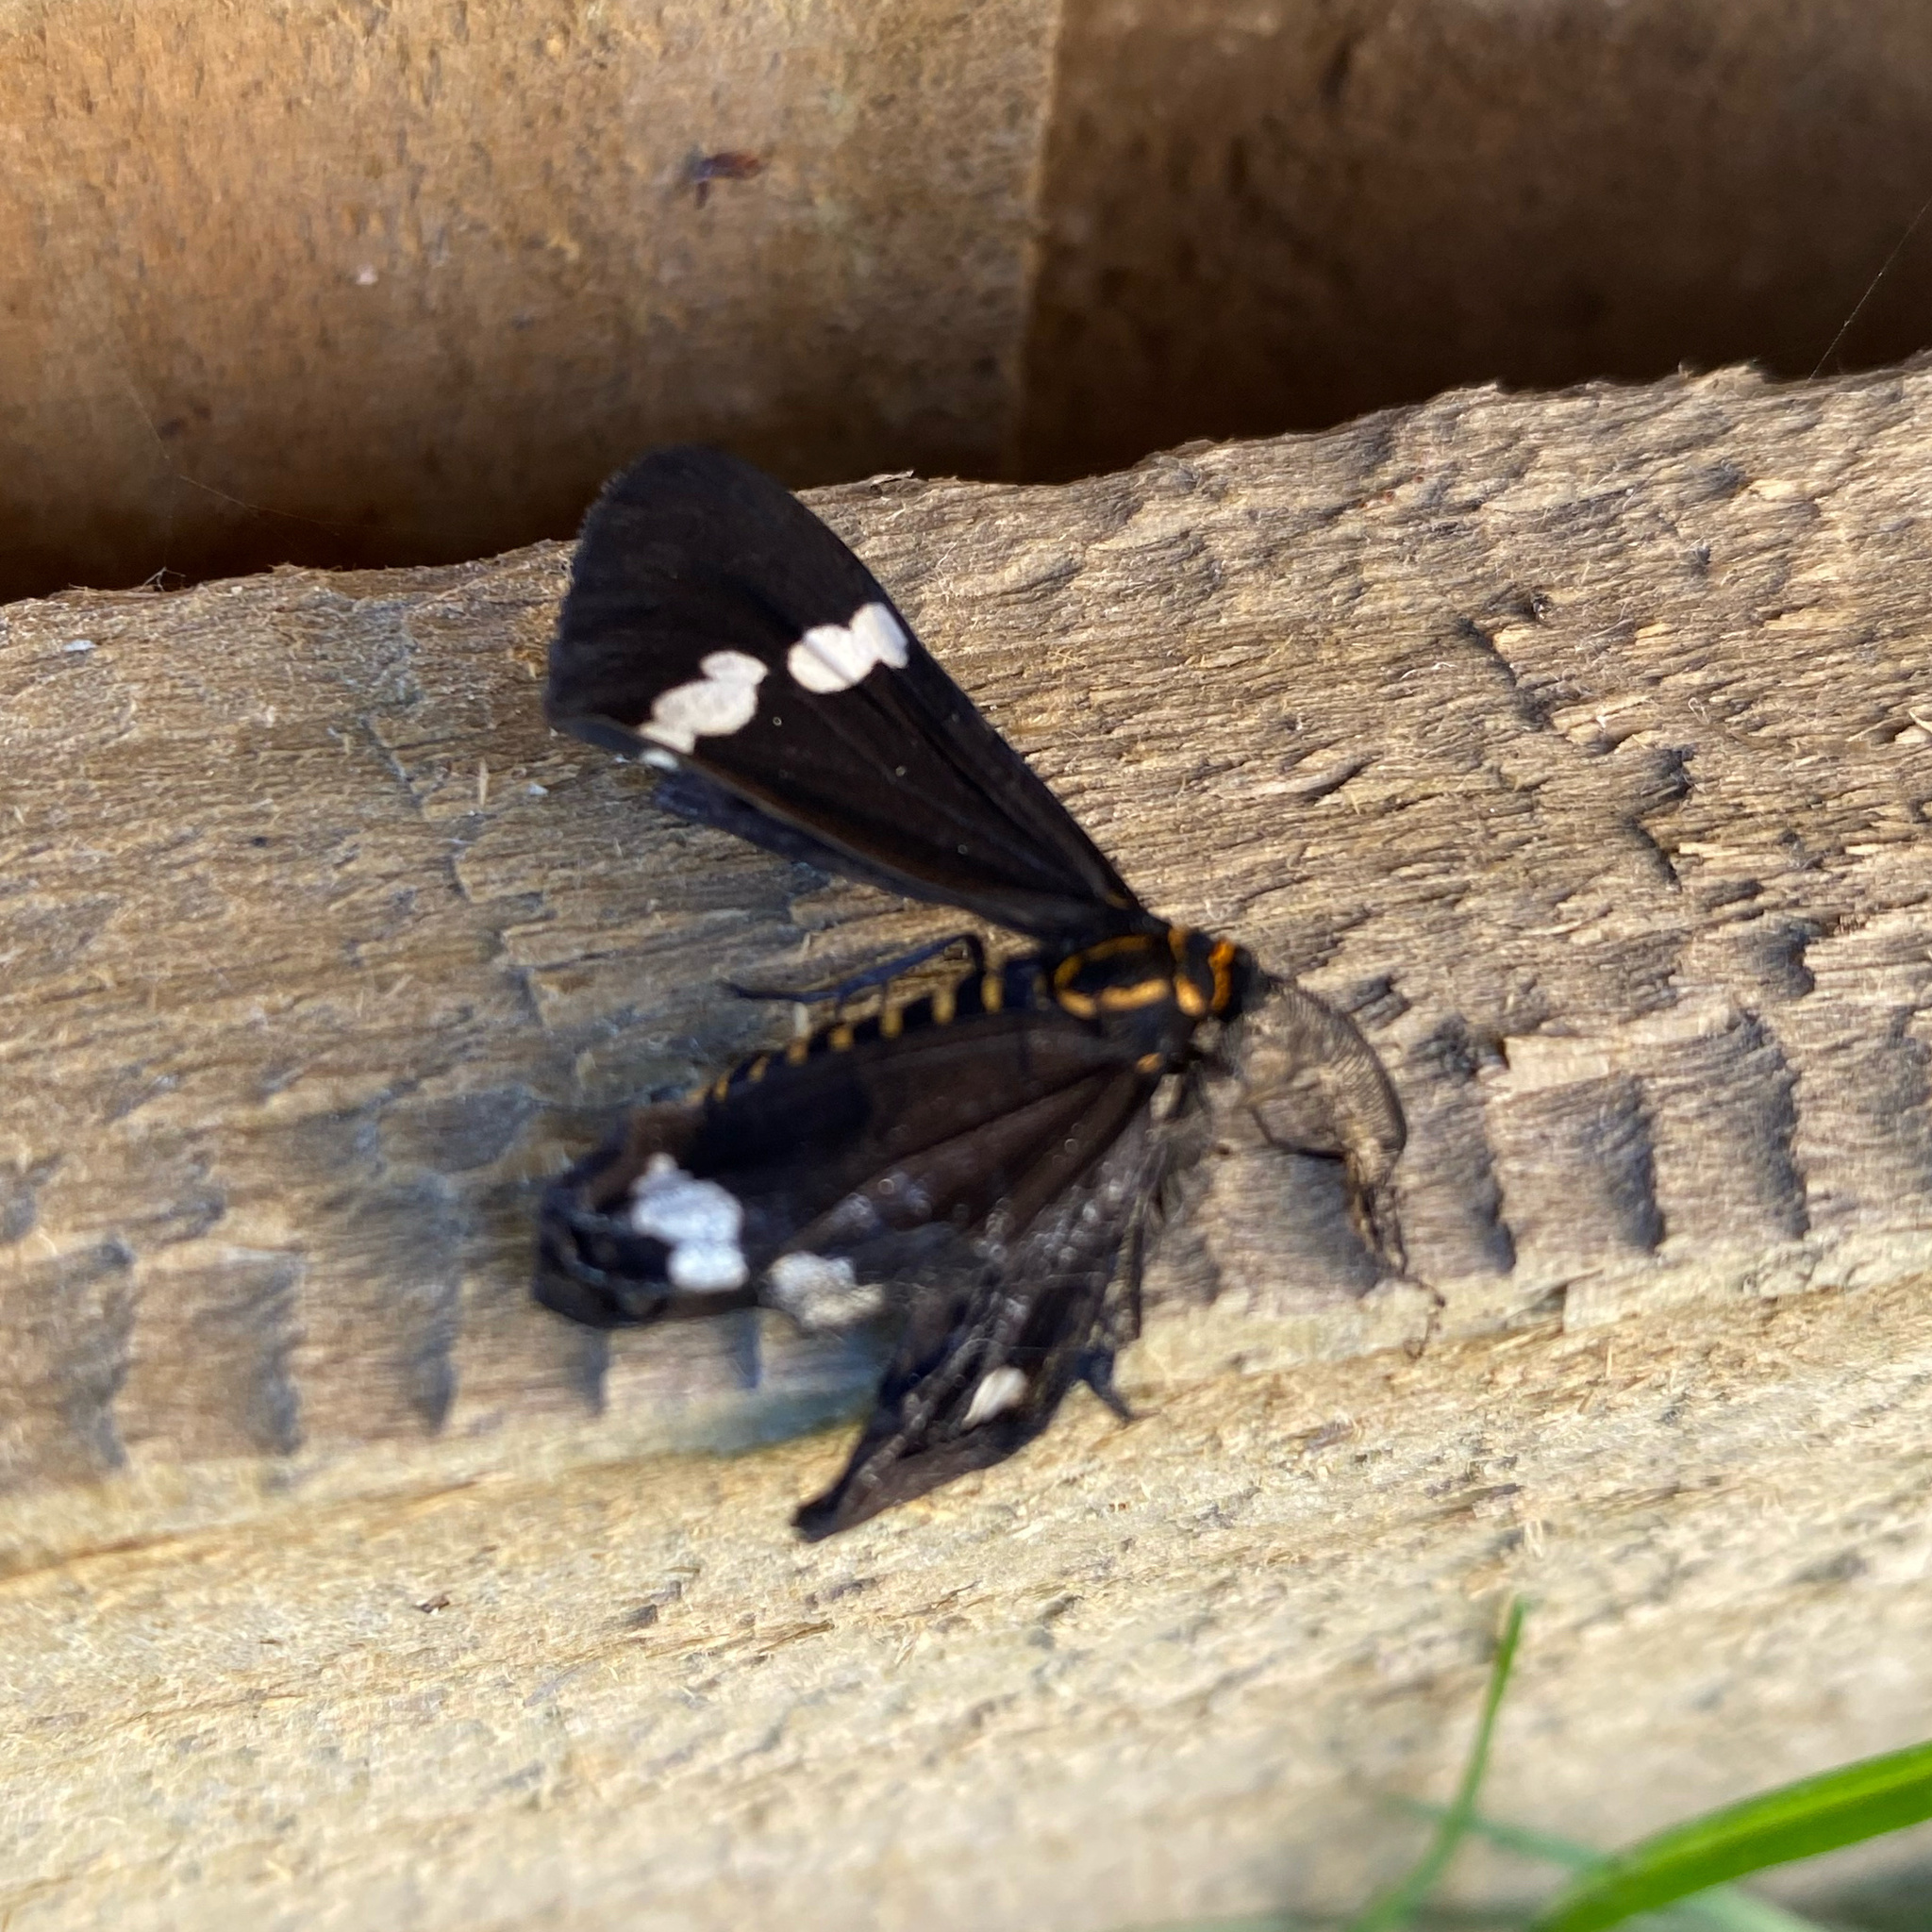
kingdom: Animalia
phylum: Arthropoda
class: Insecta
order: Lepidoptera
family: Erebidae
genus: Nyctemera
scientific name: Nyctemera annulatum
